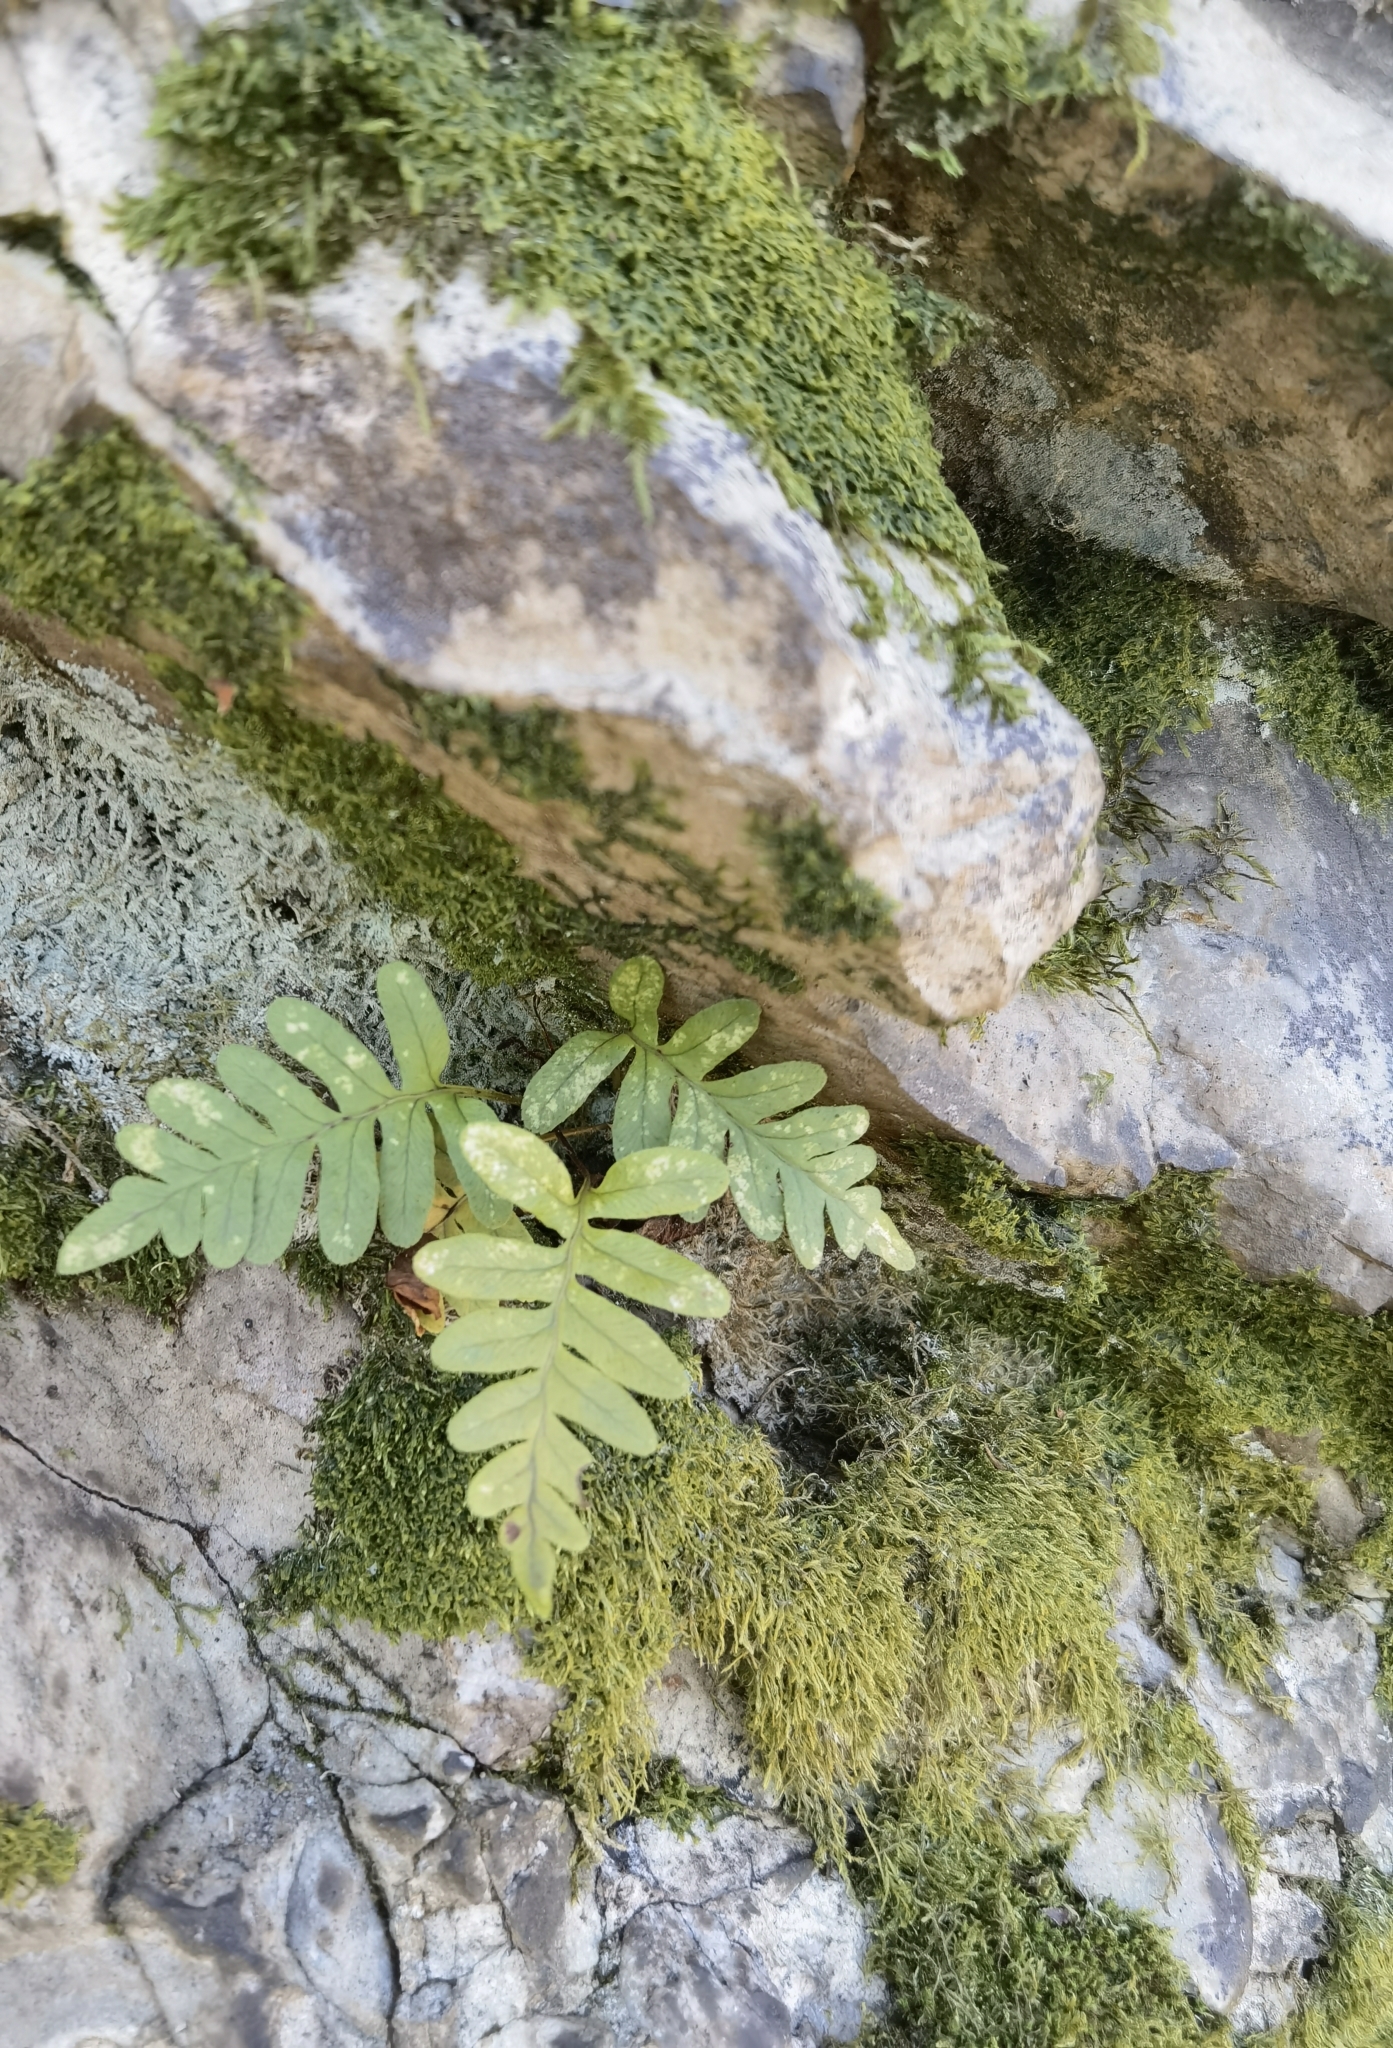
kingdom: Plantae
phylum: Tracheophyta
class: Polypodiopsida
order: Polypodiales
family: Polypodiaceae
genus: Polypodium
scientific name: Polypodium vulgare
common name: Common polypody
